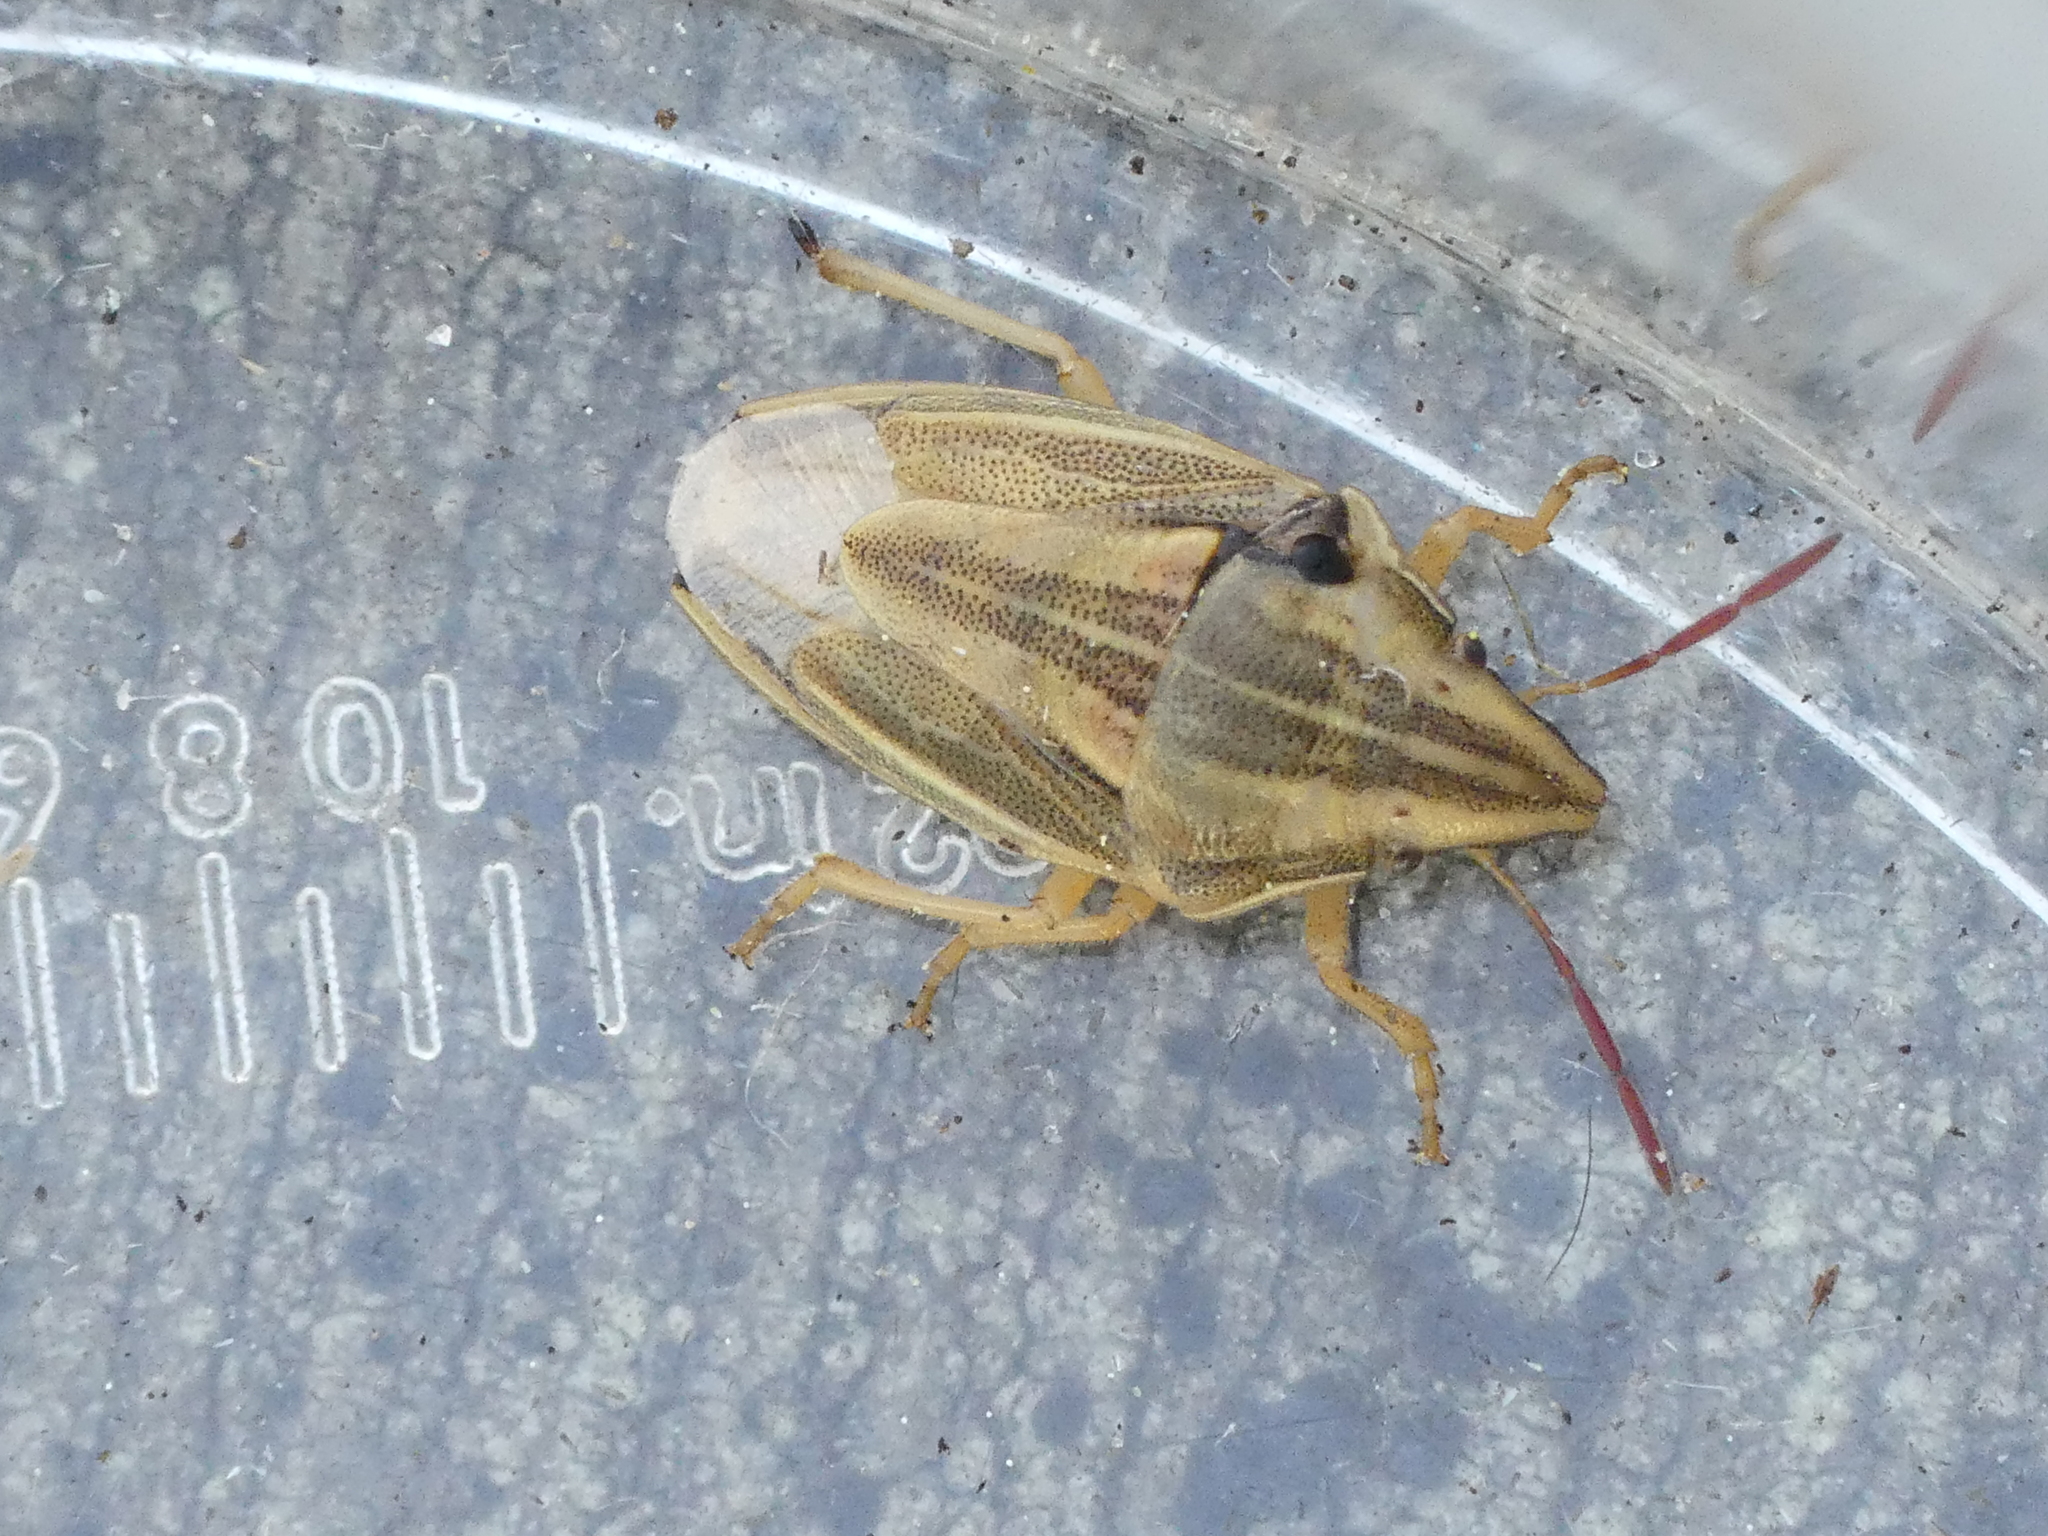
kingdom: Animalia
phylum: Arthropoda
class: Insecta
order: Hemiptera
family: Pentatomidae
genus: Aelia
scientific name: Aelia acuminata
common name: Bishop's mitre
